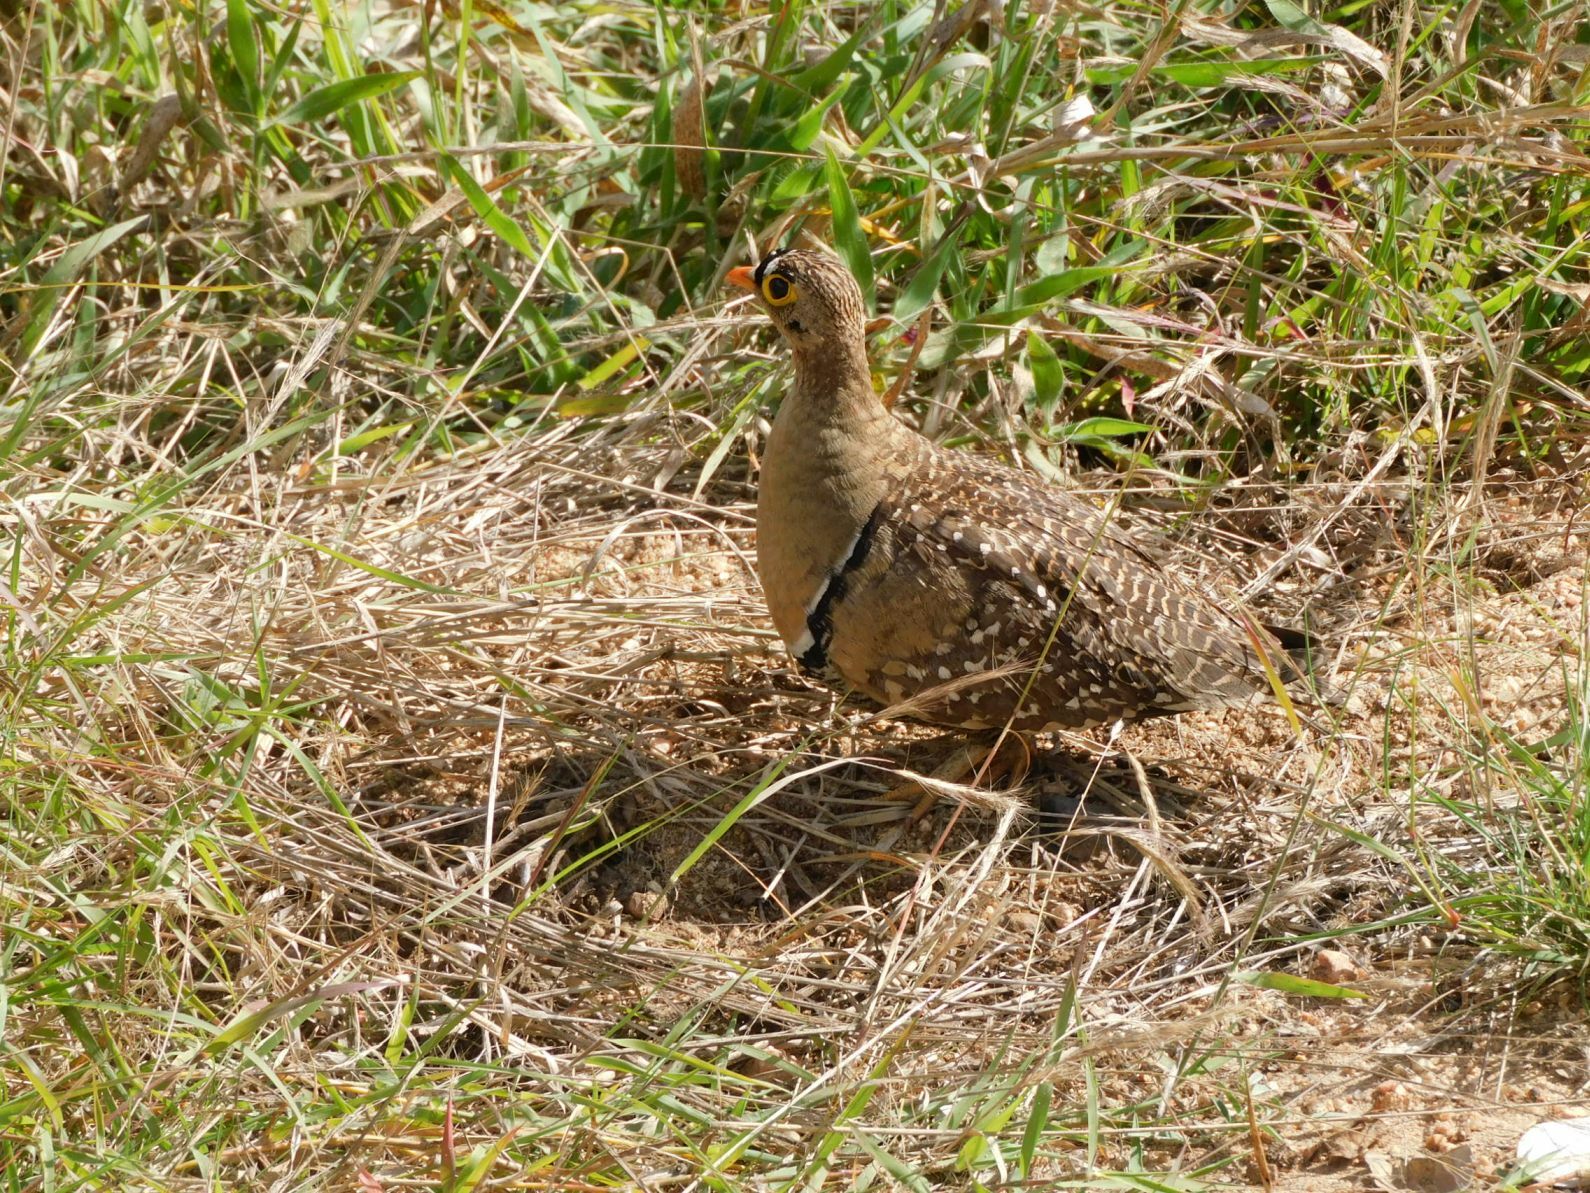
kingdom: Animalia
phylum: Chordata
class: Aves
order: Pteroclidiformes
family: Pteroclididae
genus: Pterocles
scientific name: Pterocles bicinctus
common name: Double-banded sandgrouse
